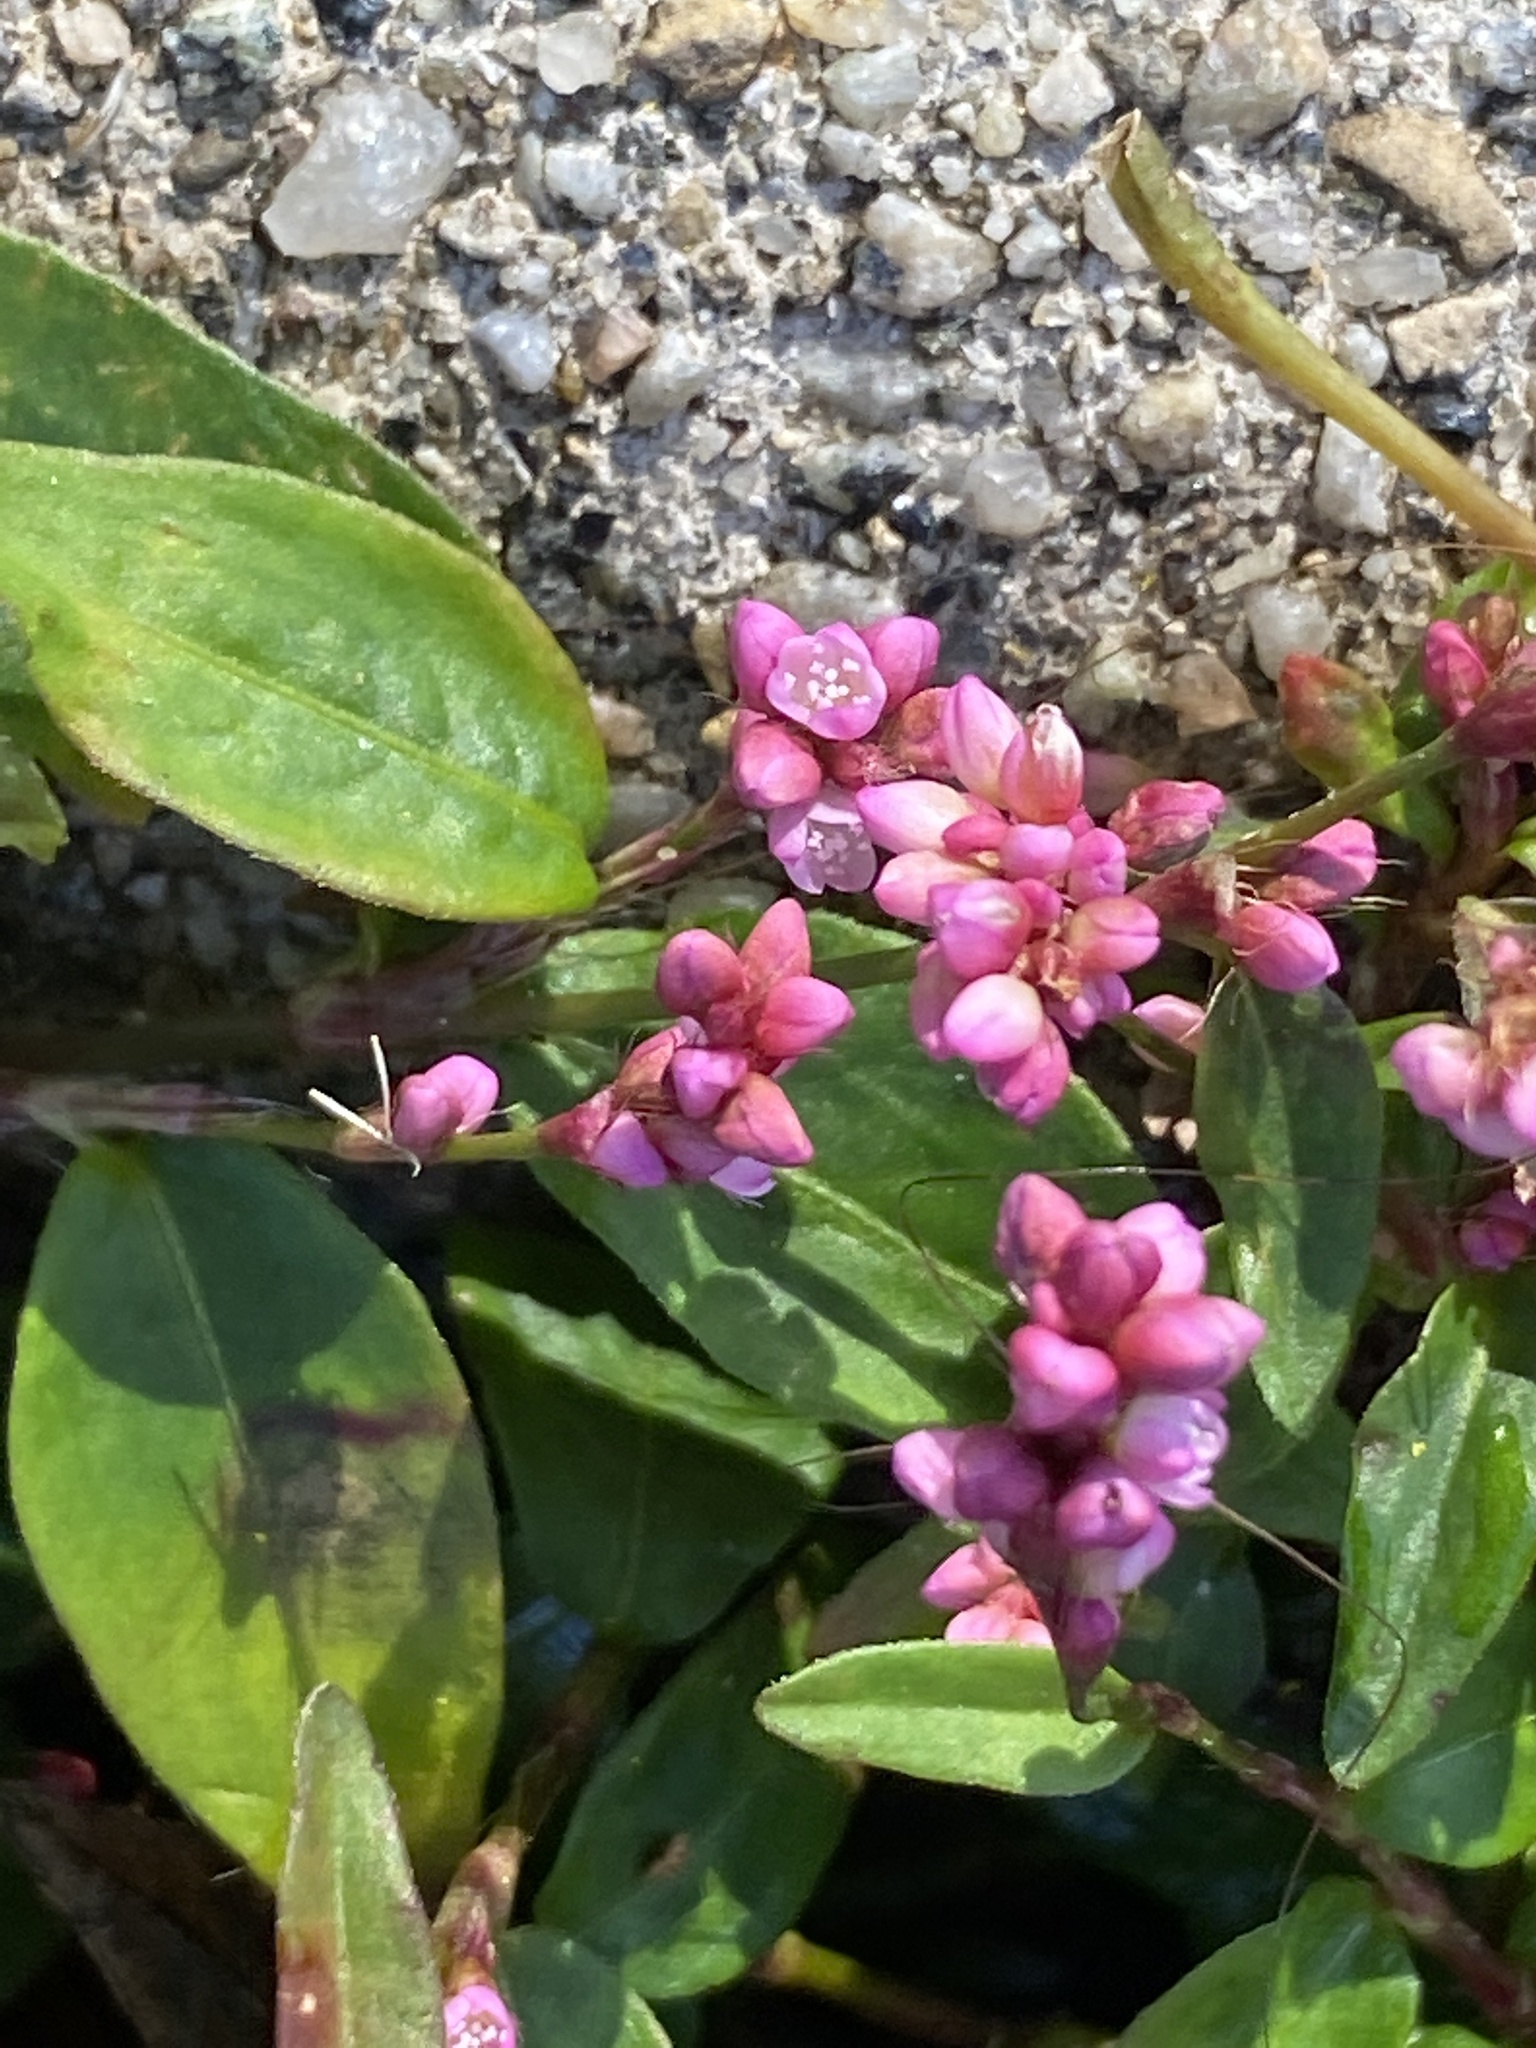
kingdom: Plantae
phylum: Tracheophyta
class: Magnoliopsida
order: Caryophyllales
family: Polygonaceae
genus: Persicaria
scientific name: Persicaria longiseta
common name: Bristly lady's-thumb
